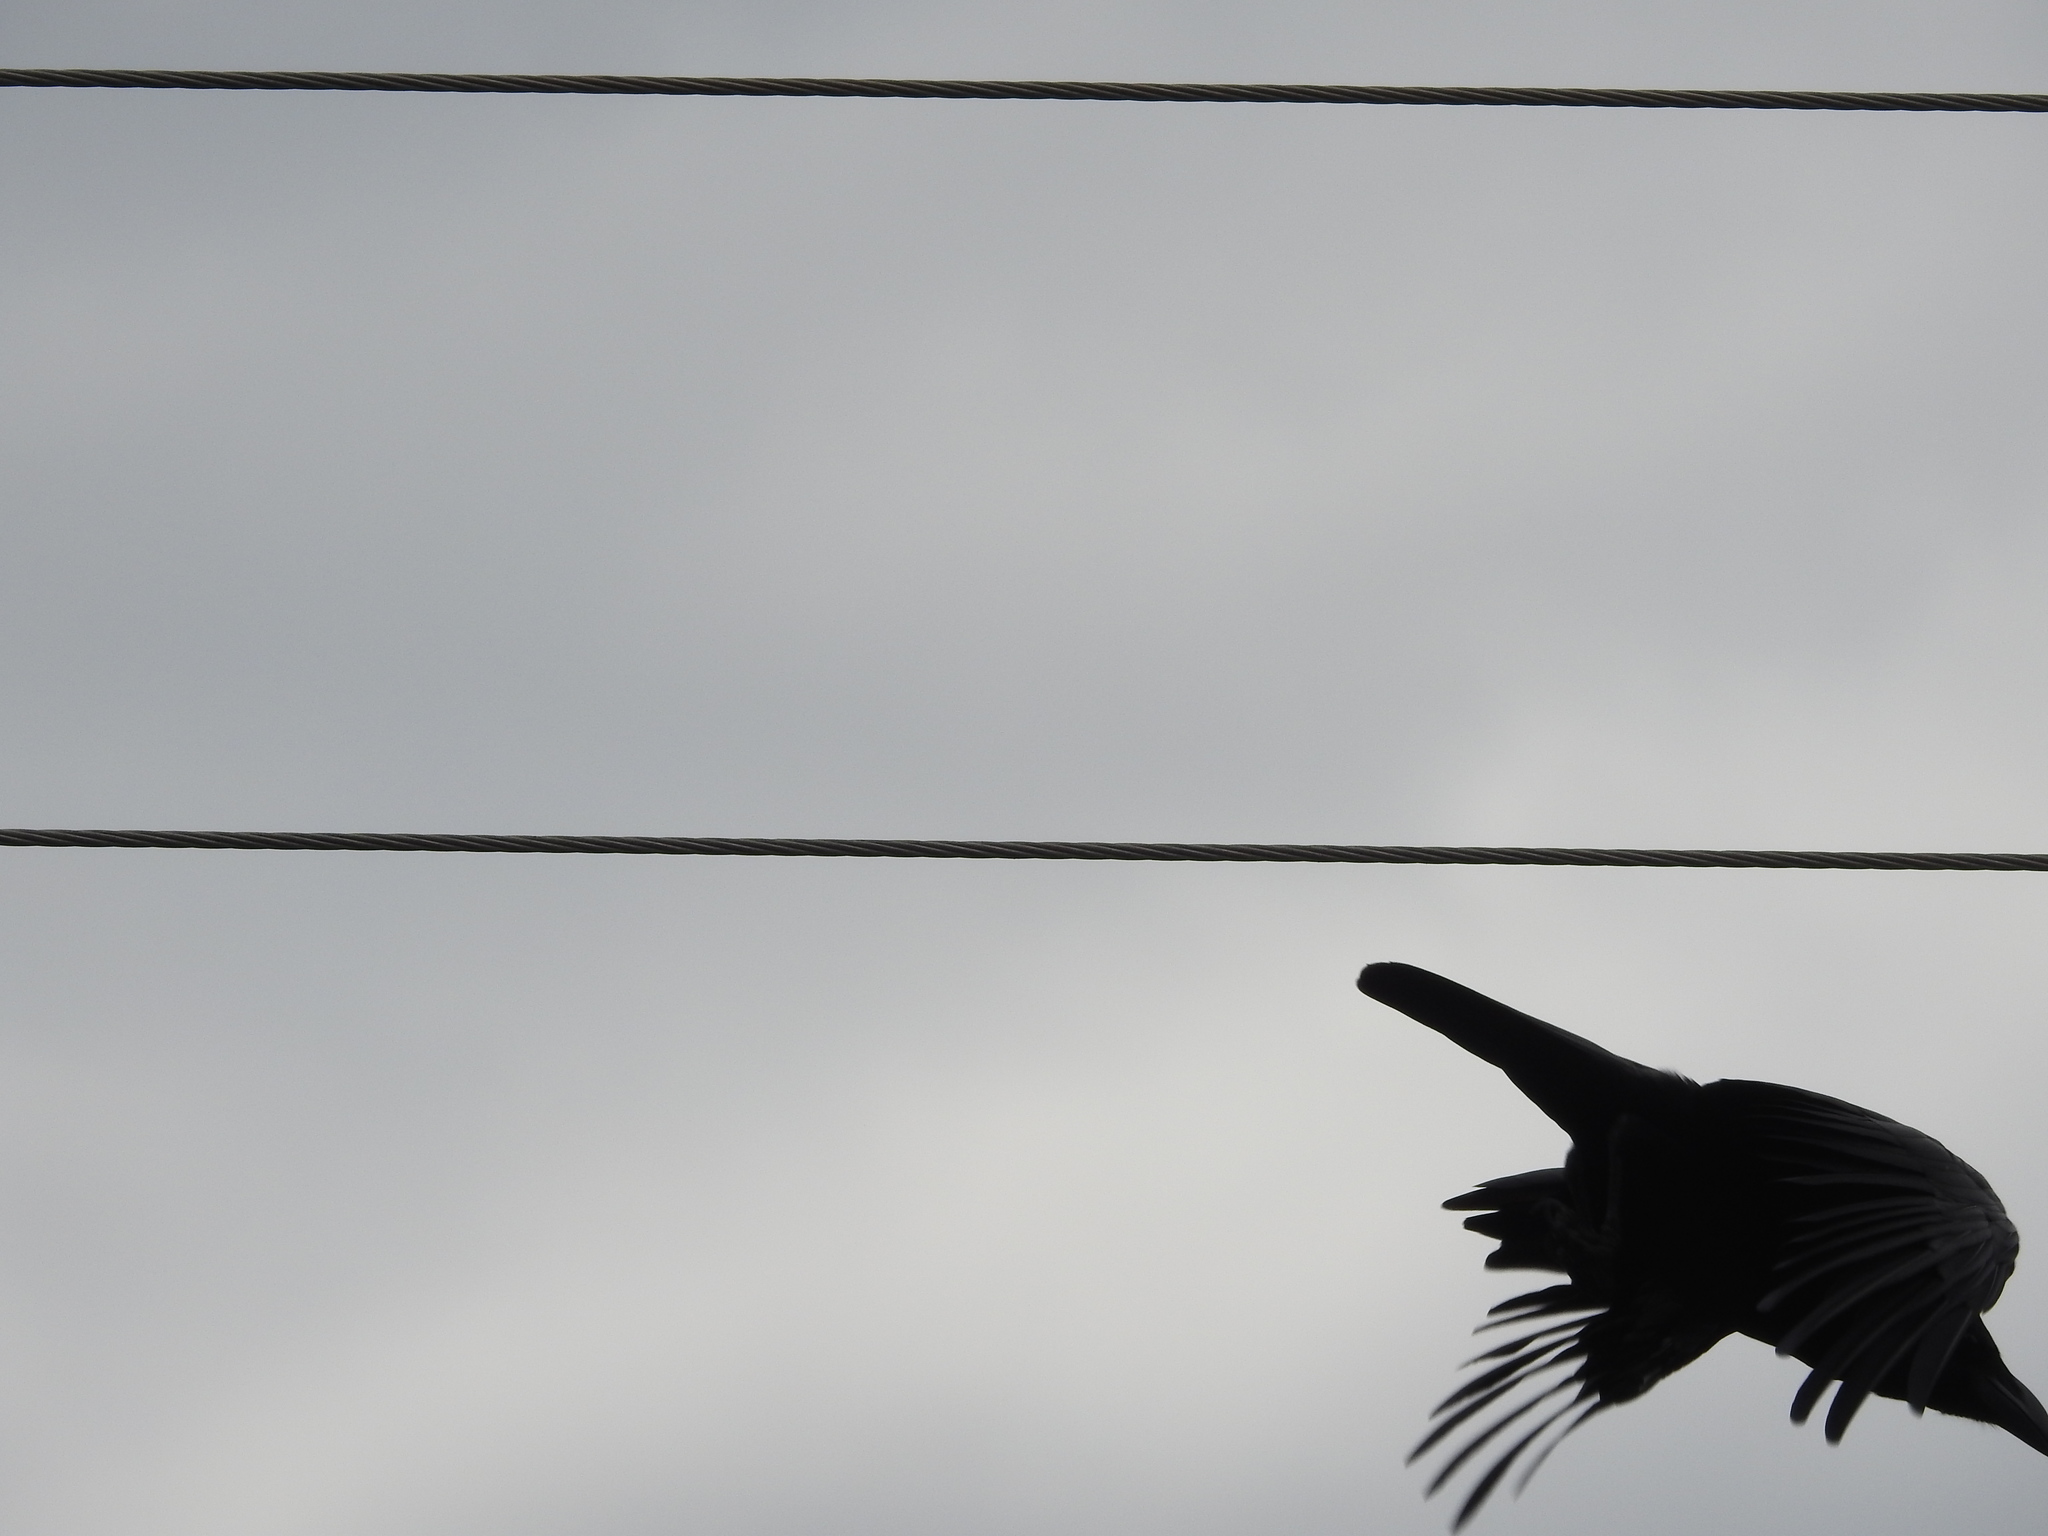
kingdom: Animalia
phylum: Chordata
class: Aves
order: Passeriformes
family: Corvidae
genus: Corvus
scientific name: Corvus macrorhynchos
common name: Large-billed crow
